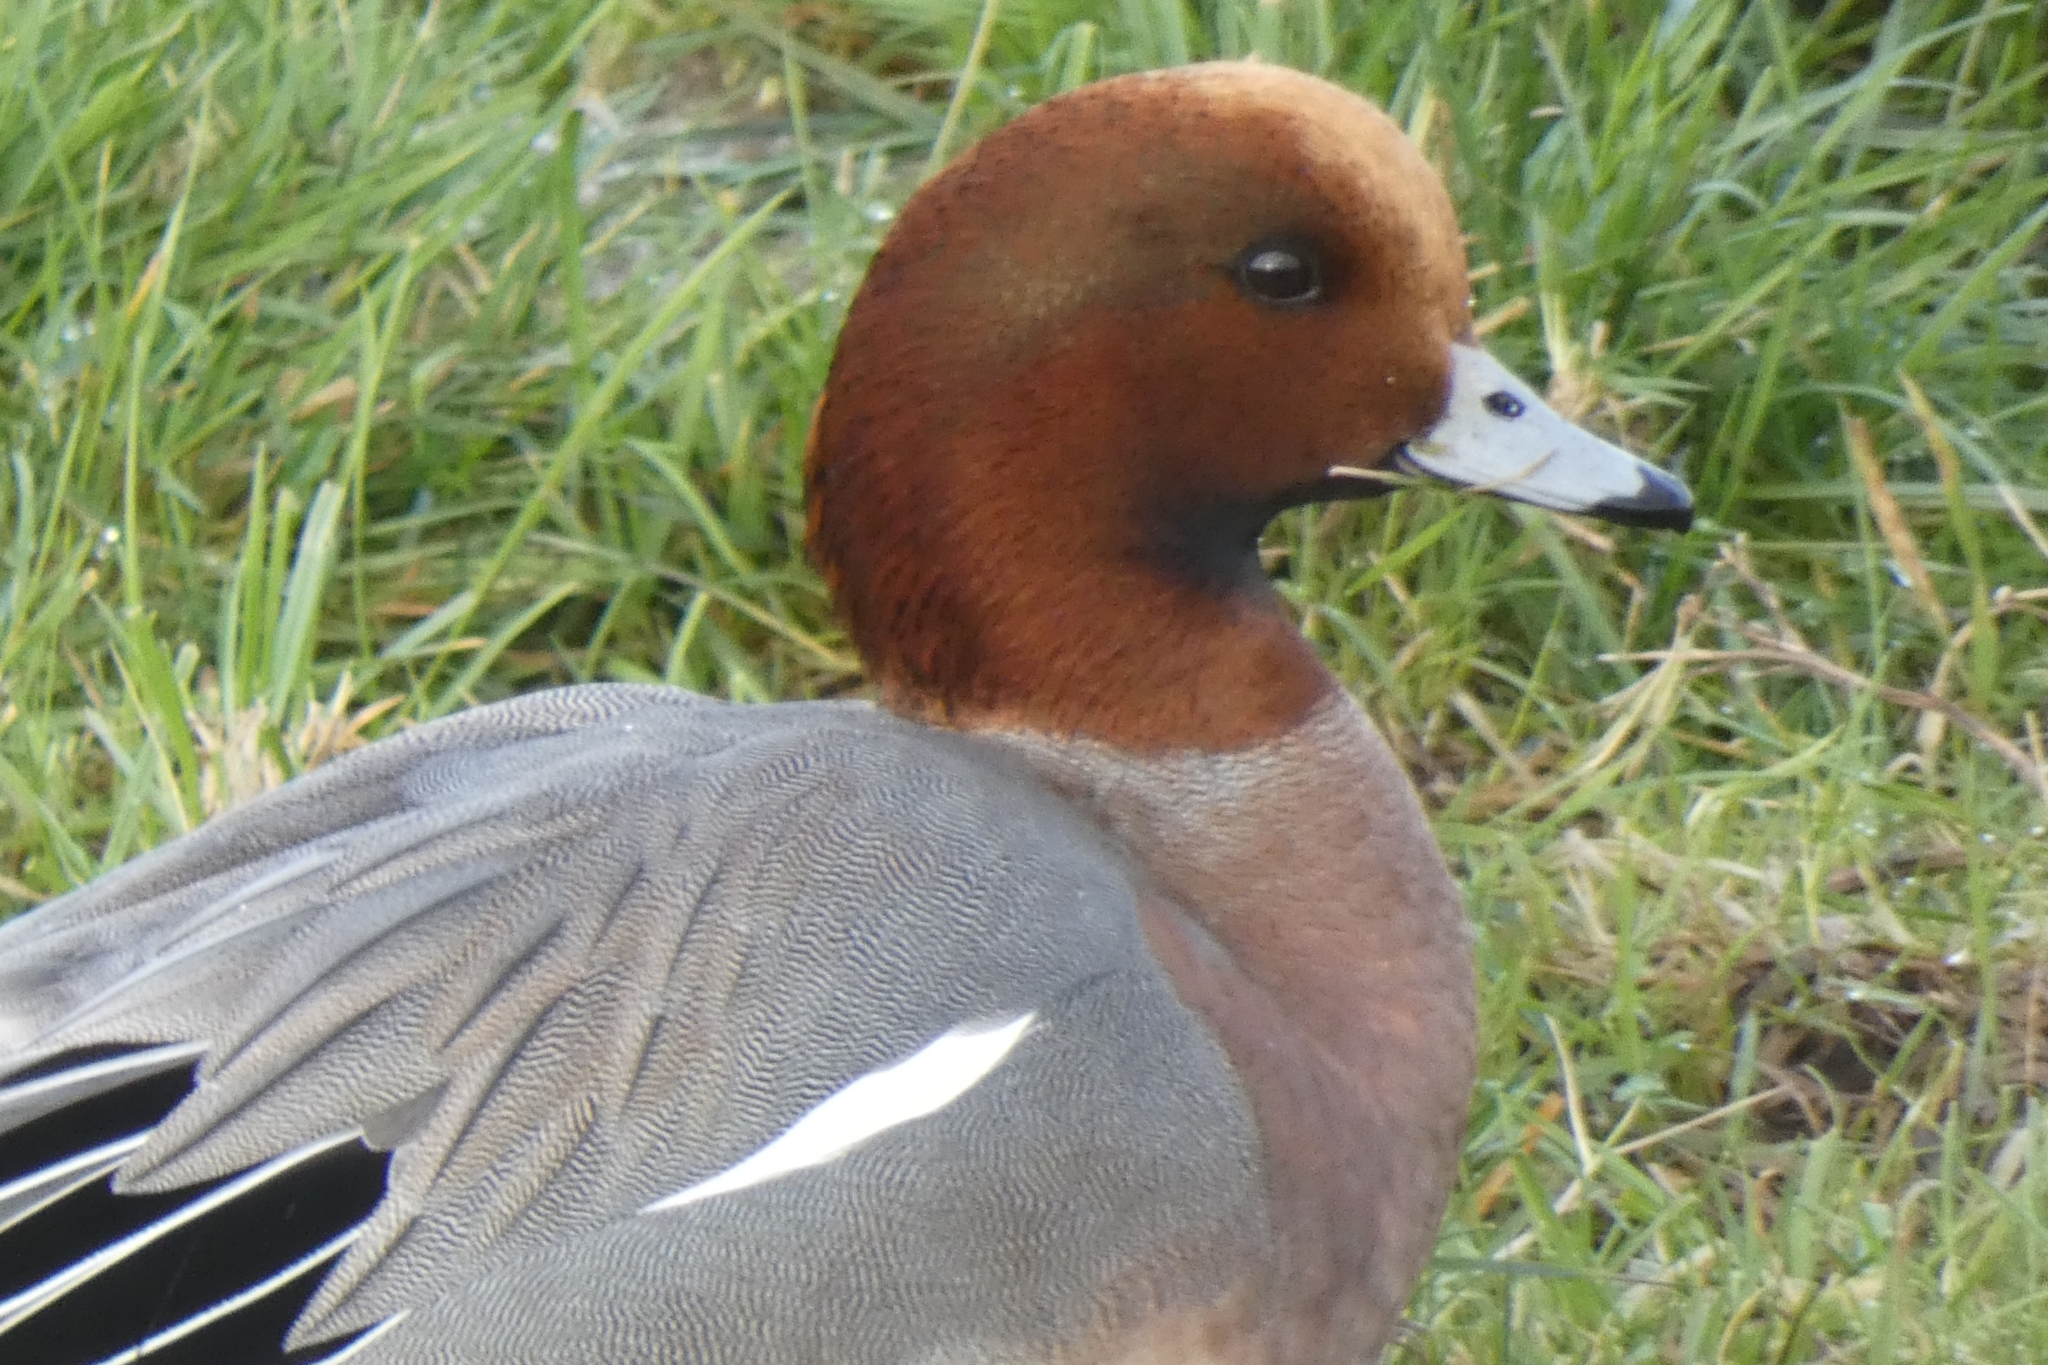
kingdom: Animalia
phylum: Chordata
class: Aves
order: Anseriformes
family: Anatidae
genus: Mareca
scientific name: Mareca penelope
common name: Eurasian wigeon
